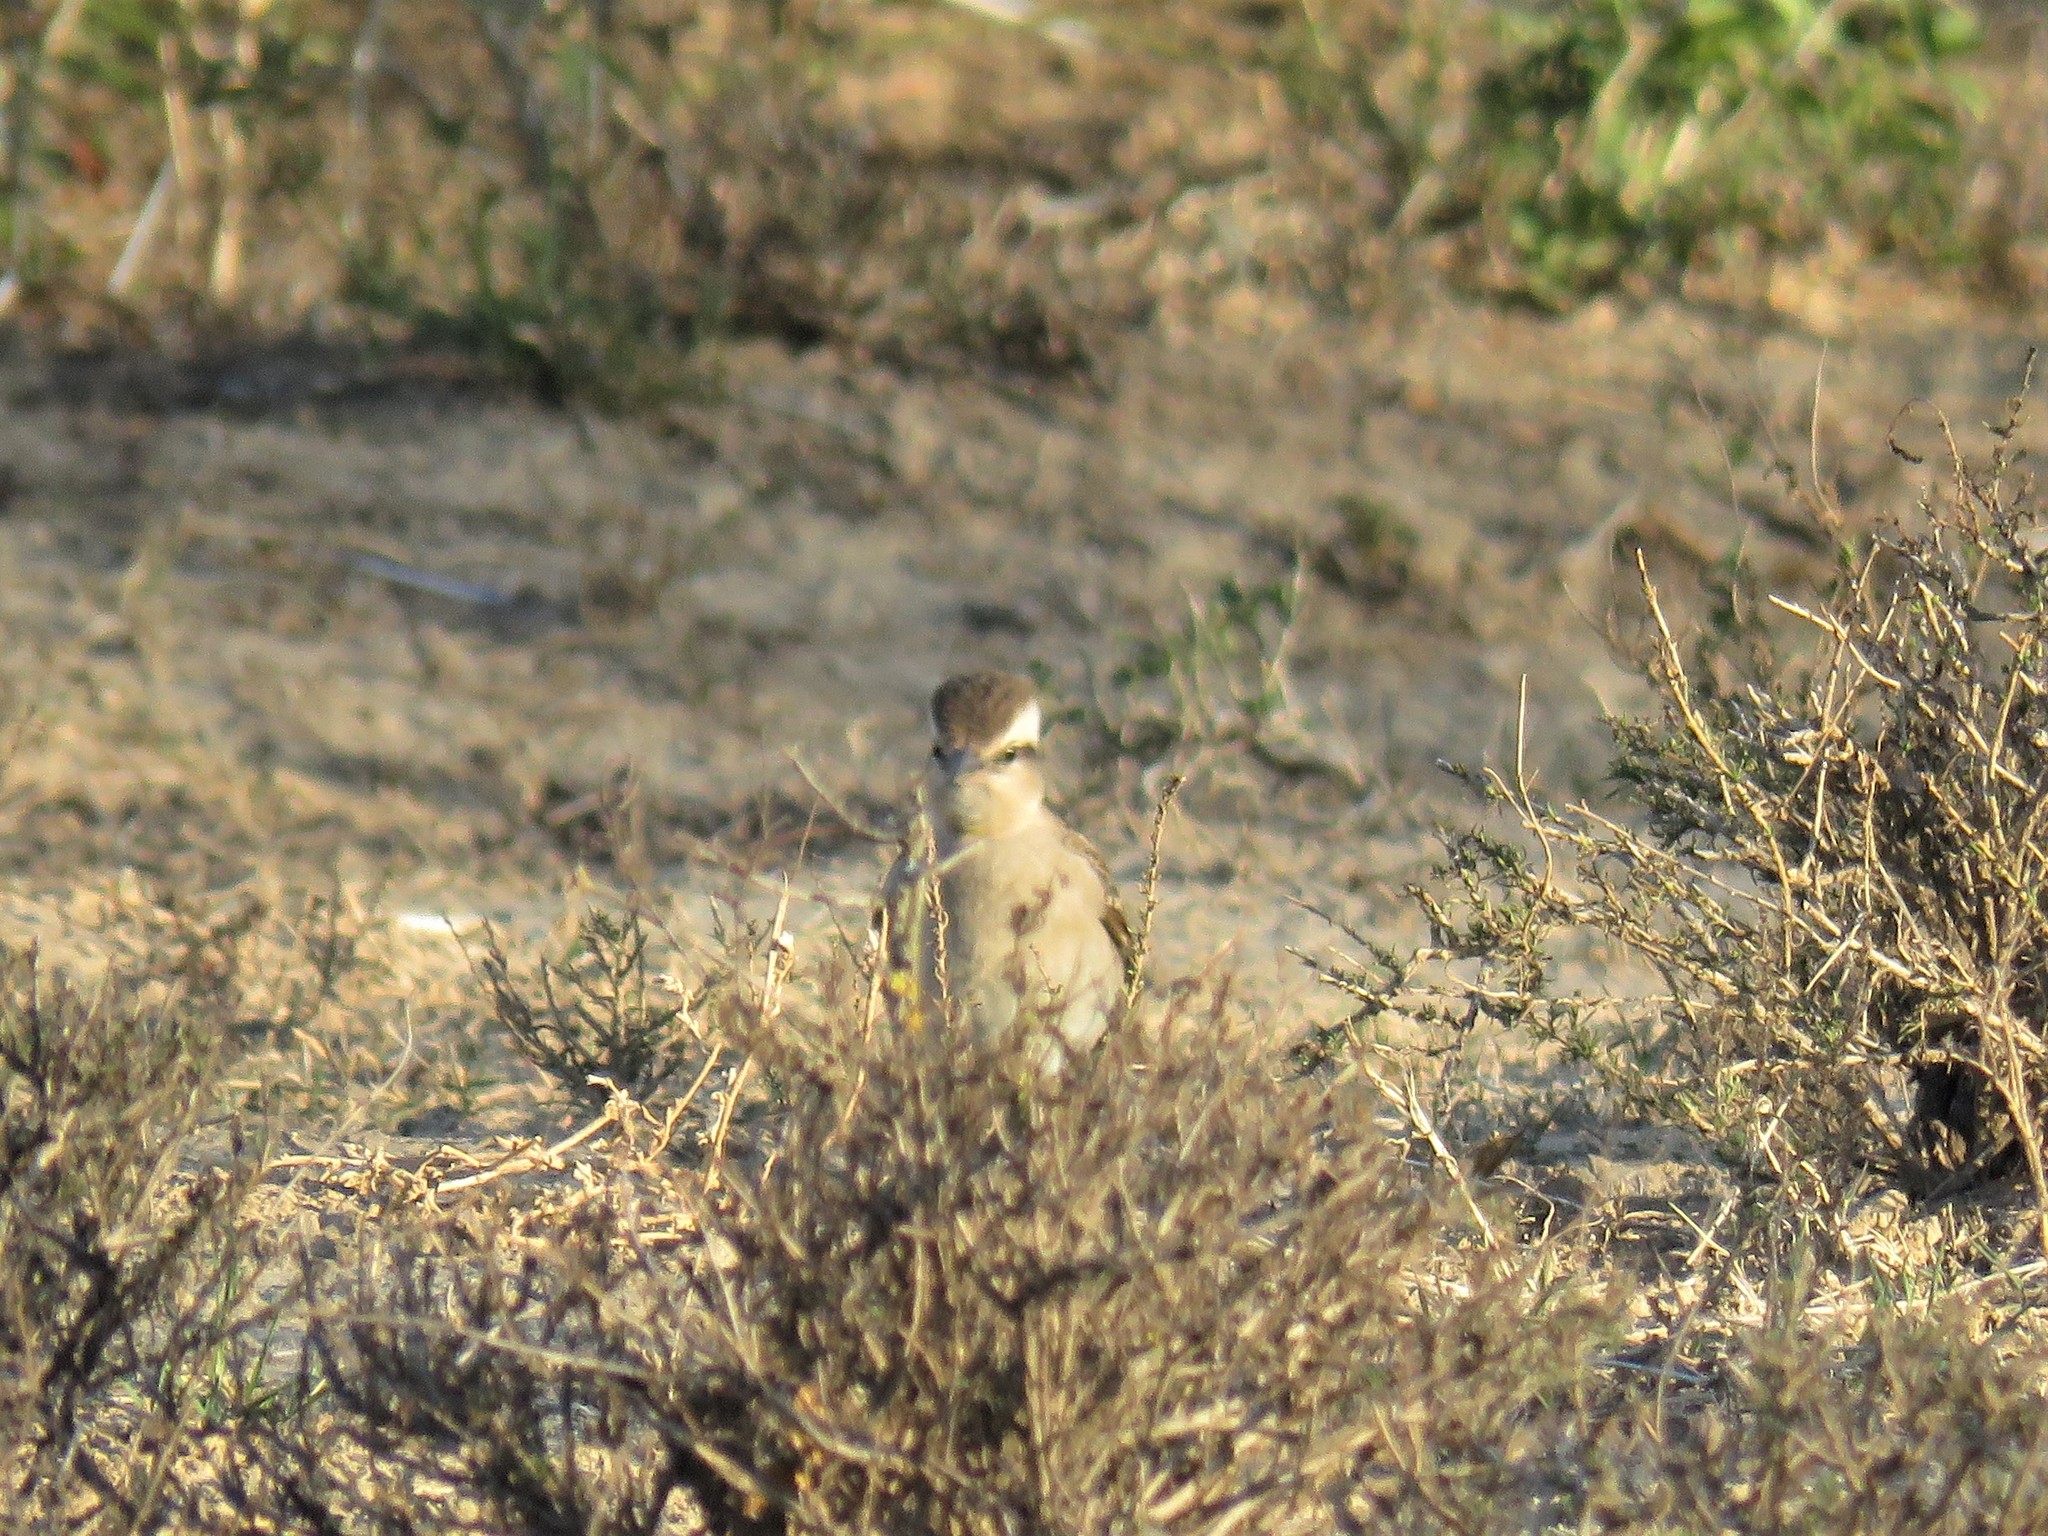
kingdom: Animalia
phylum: Chordata
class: Aves
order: Passeriformes
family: Passeridae
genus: Gymnoris
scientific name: Gymnoris superciliaris
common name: Yellow-throated petronia
